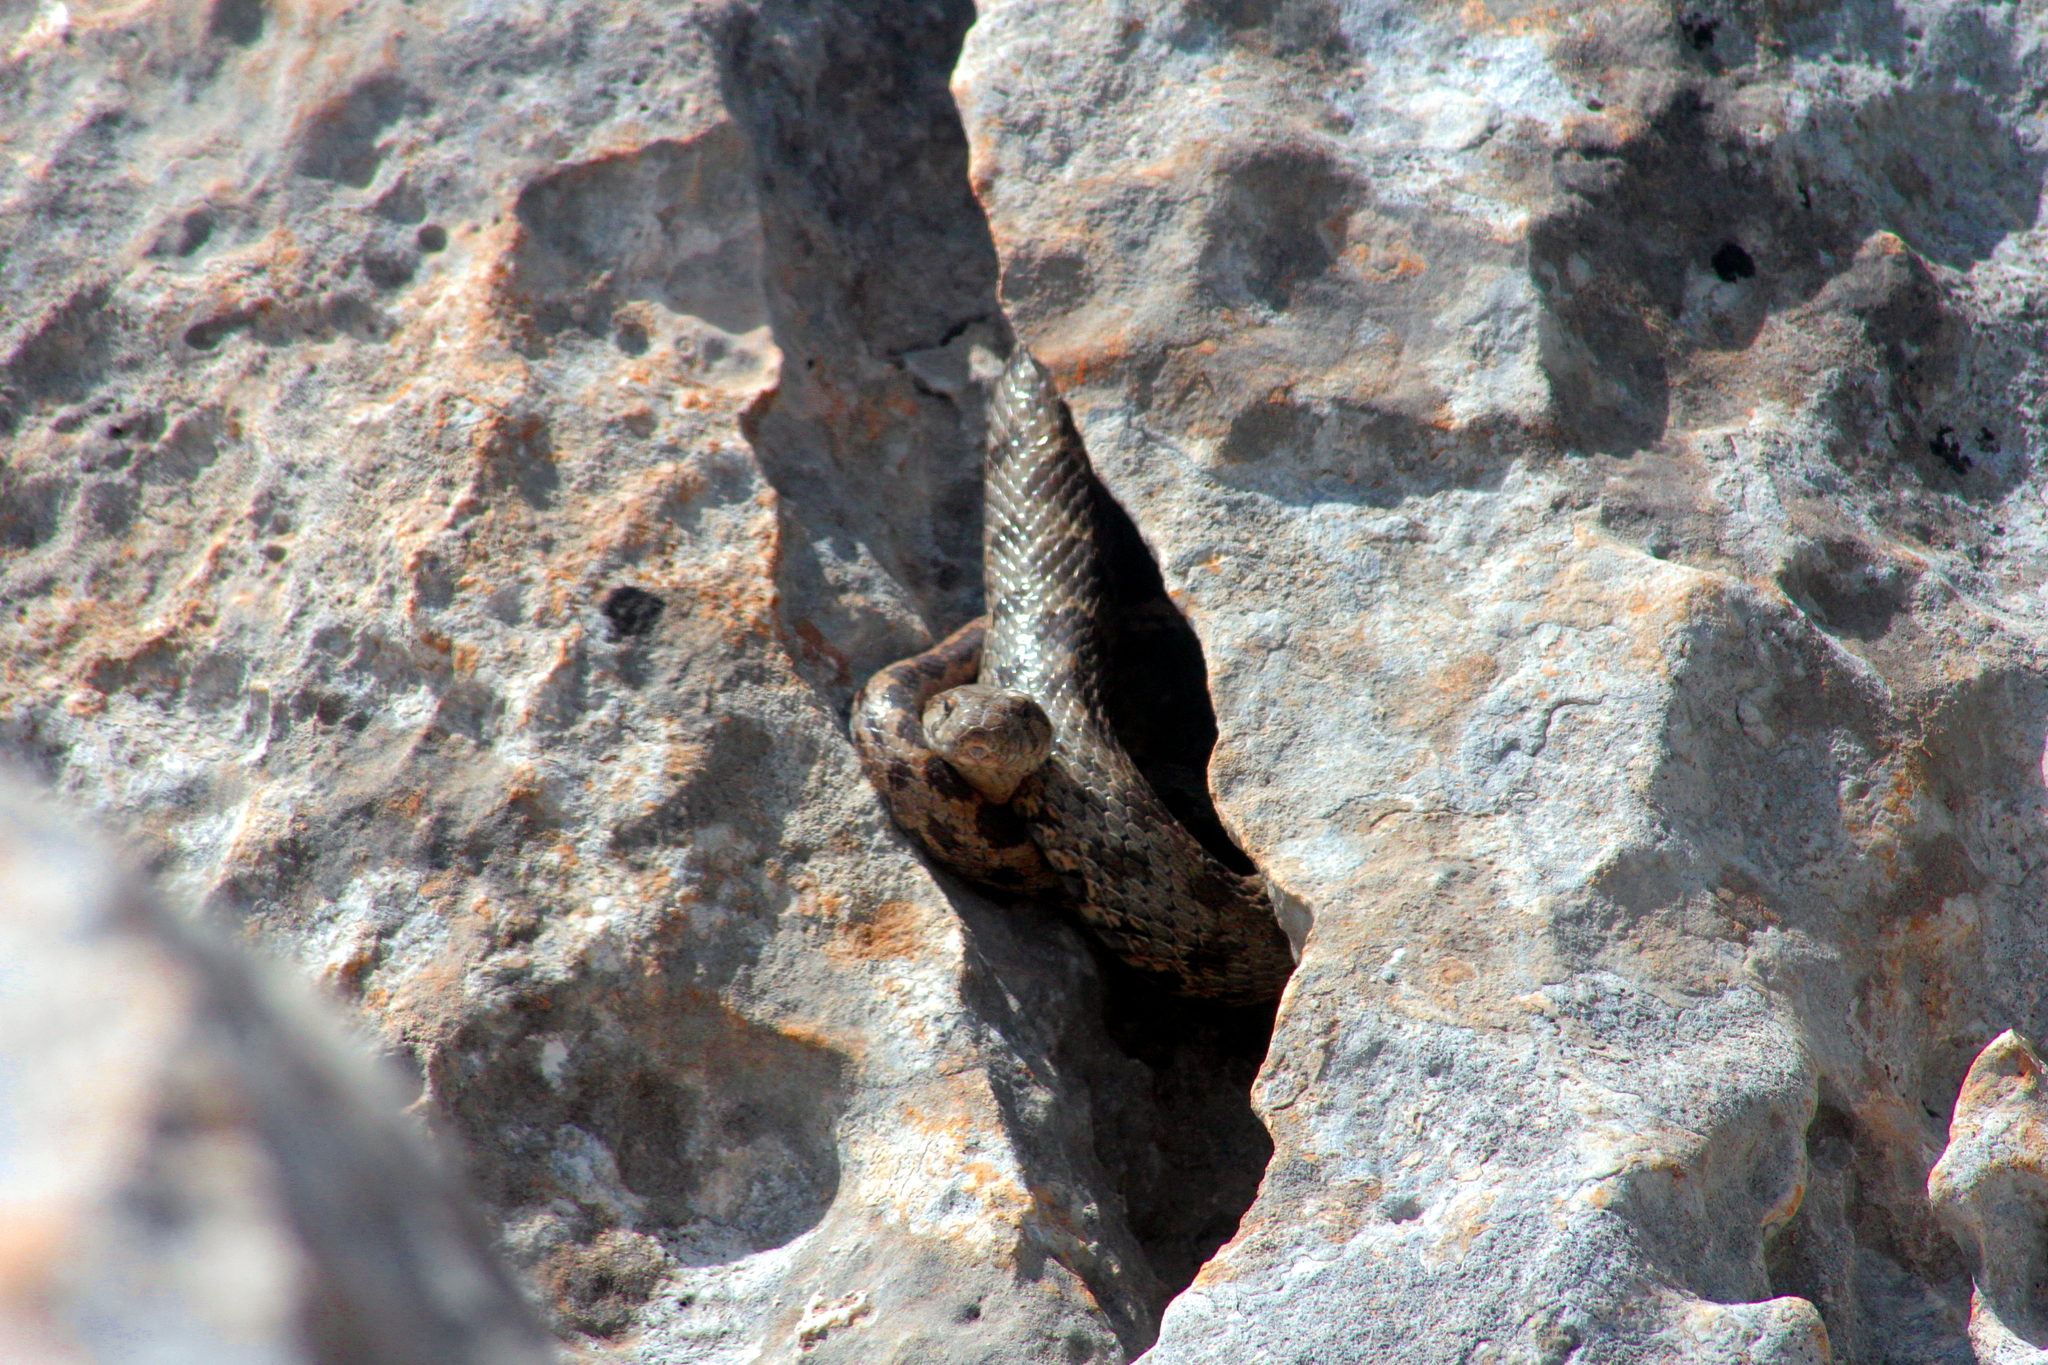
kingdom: Animalia
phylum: Chordata
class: Squamata
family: Colubridae
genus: Hemorrhois
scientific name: Hemorrhois nummifer
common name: Asian racer
